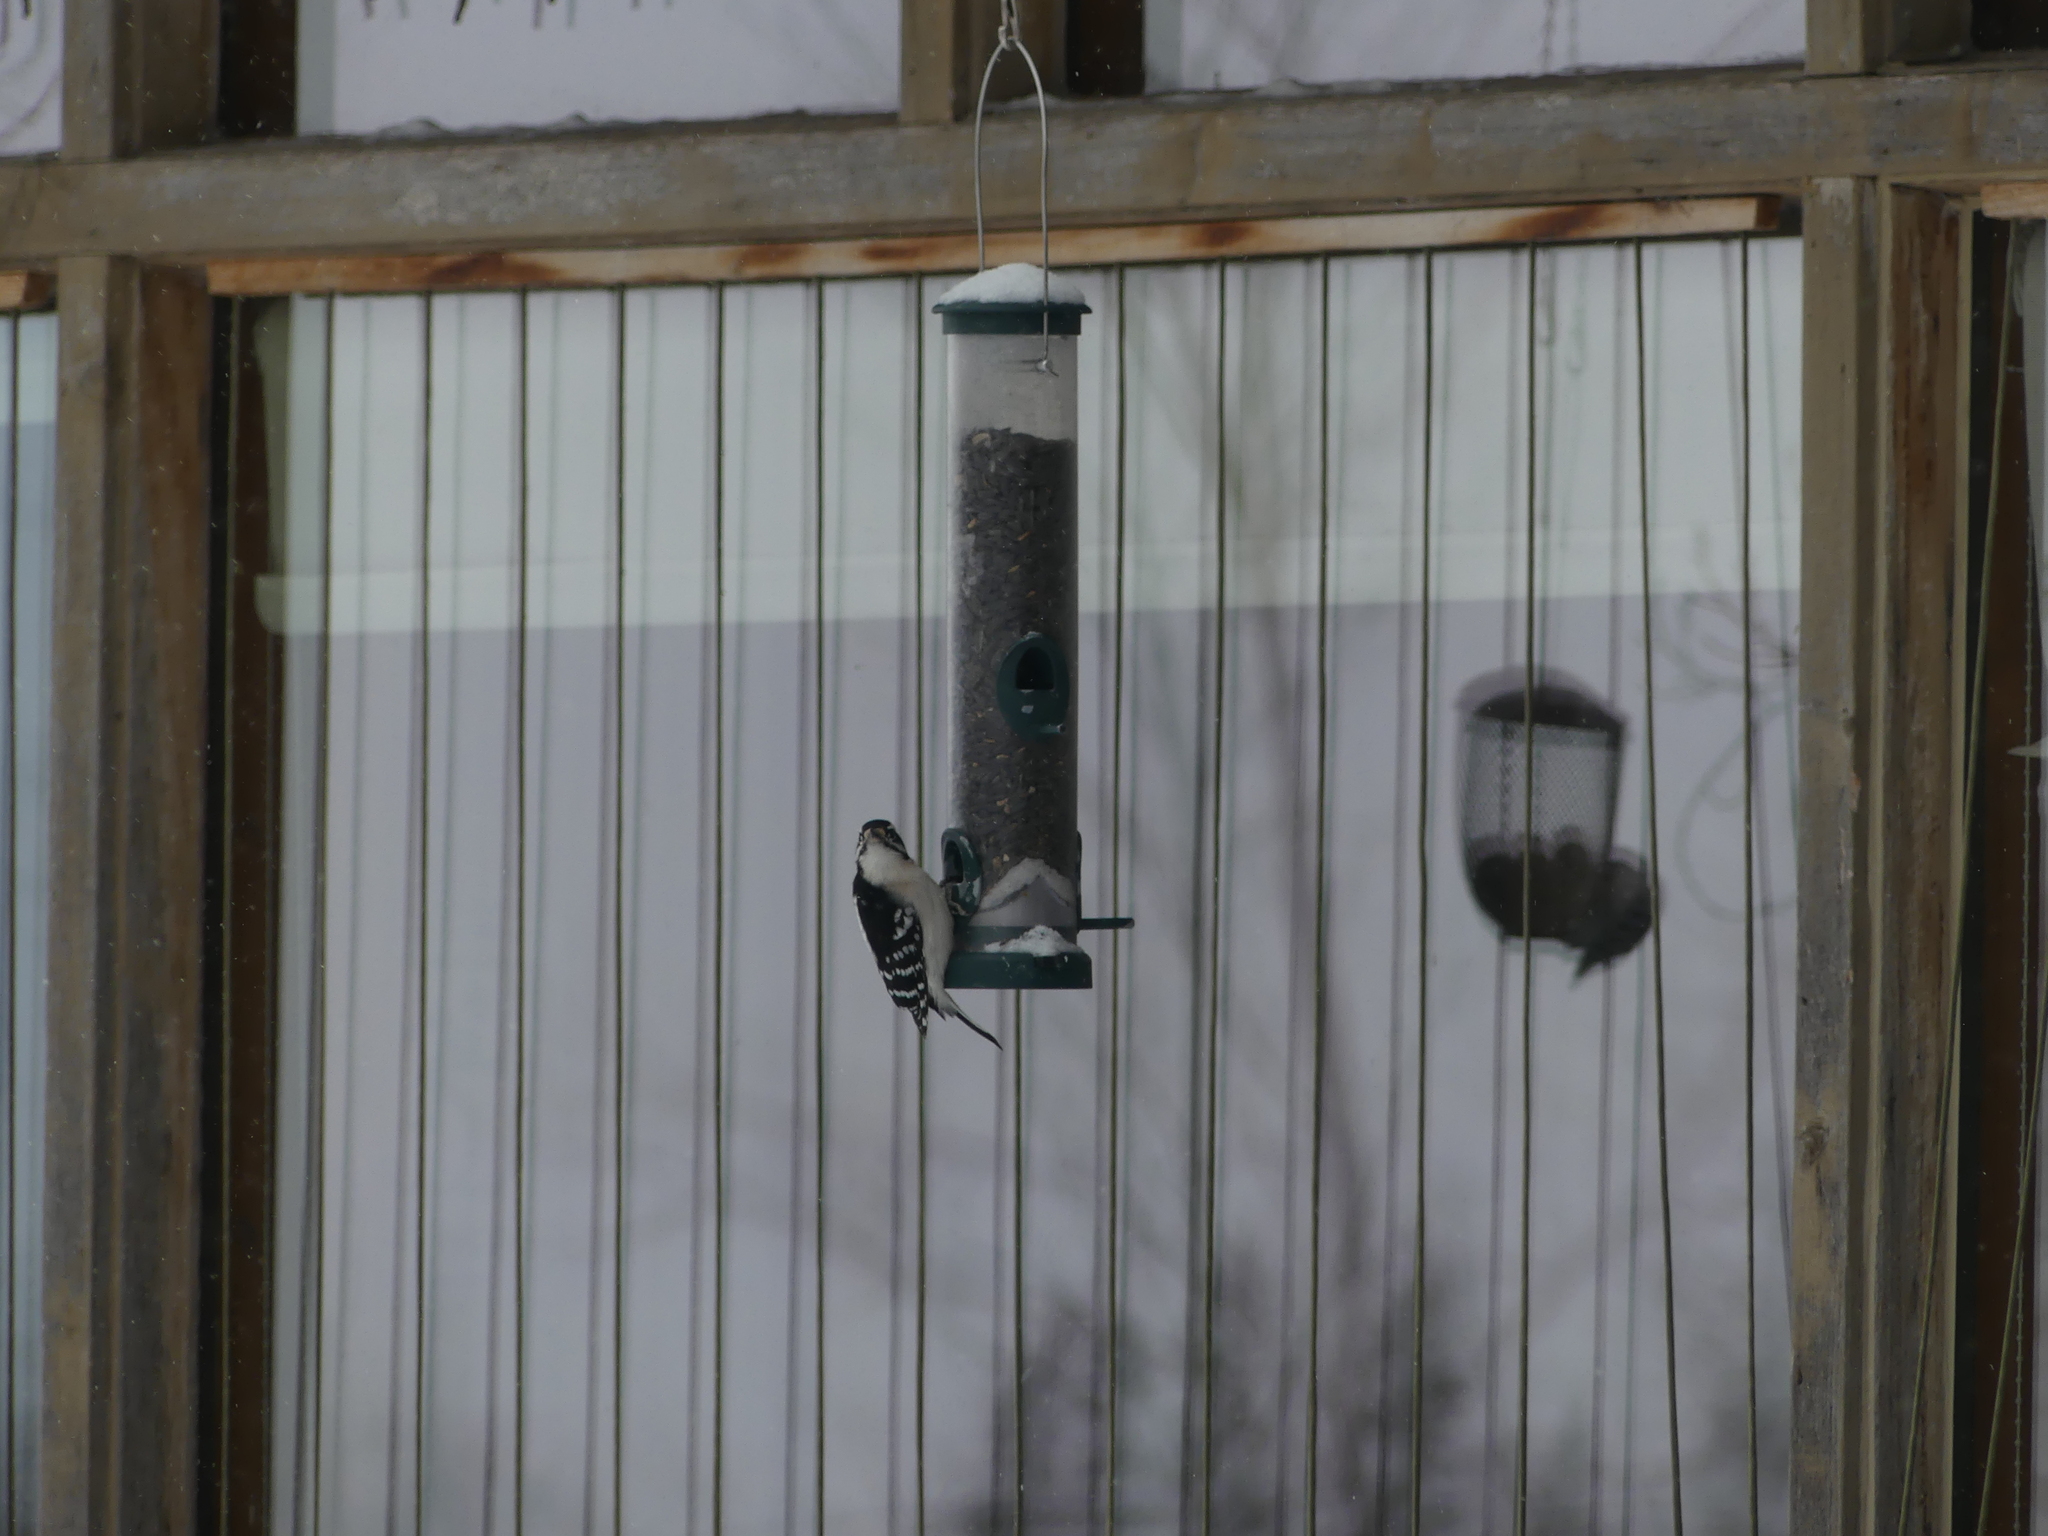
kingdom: Animalia
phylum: Chordata
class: Aves
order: Piciformes
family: Picidae
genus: Dryobates
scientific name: Dryobates pubescens
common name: Downy woodpecker
